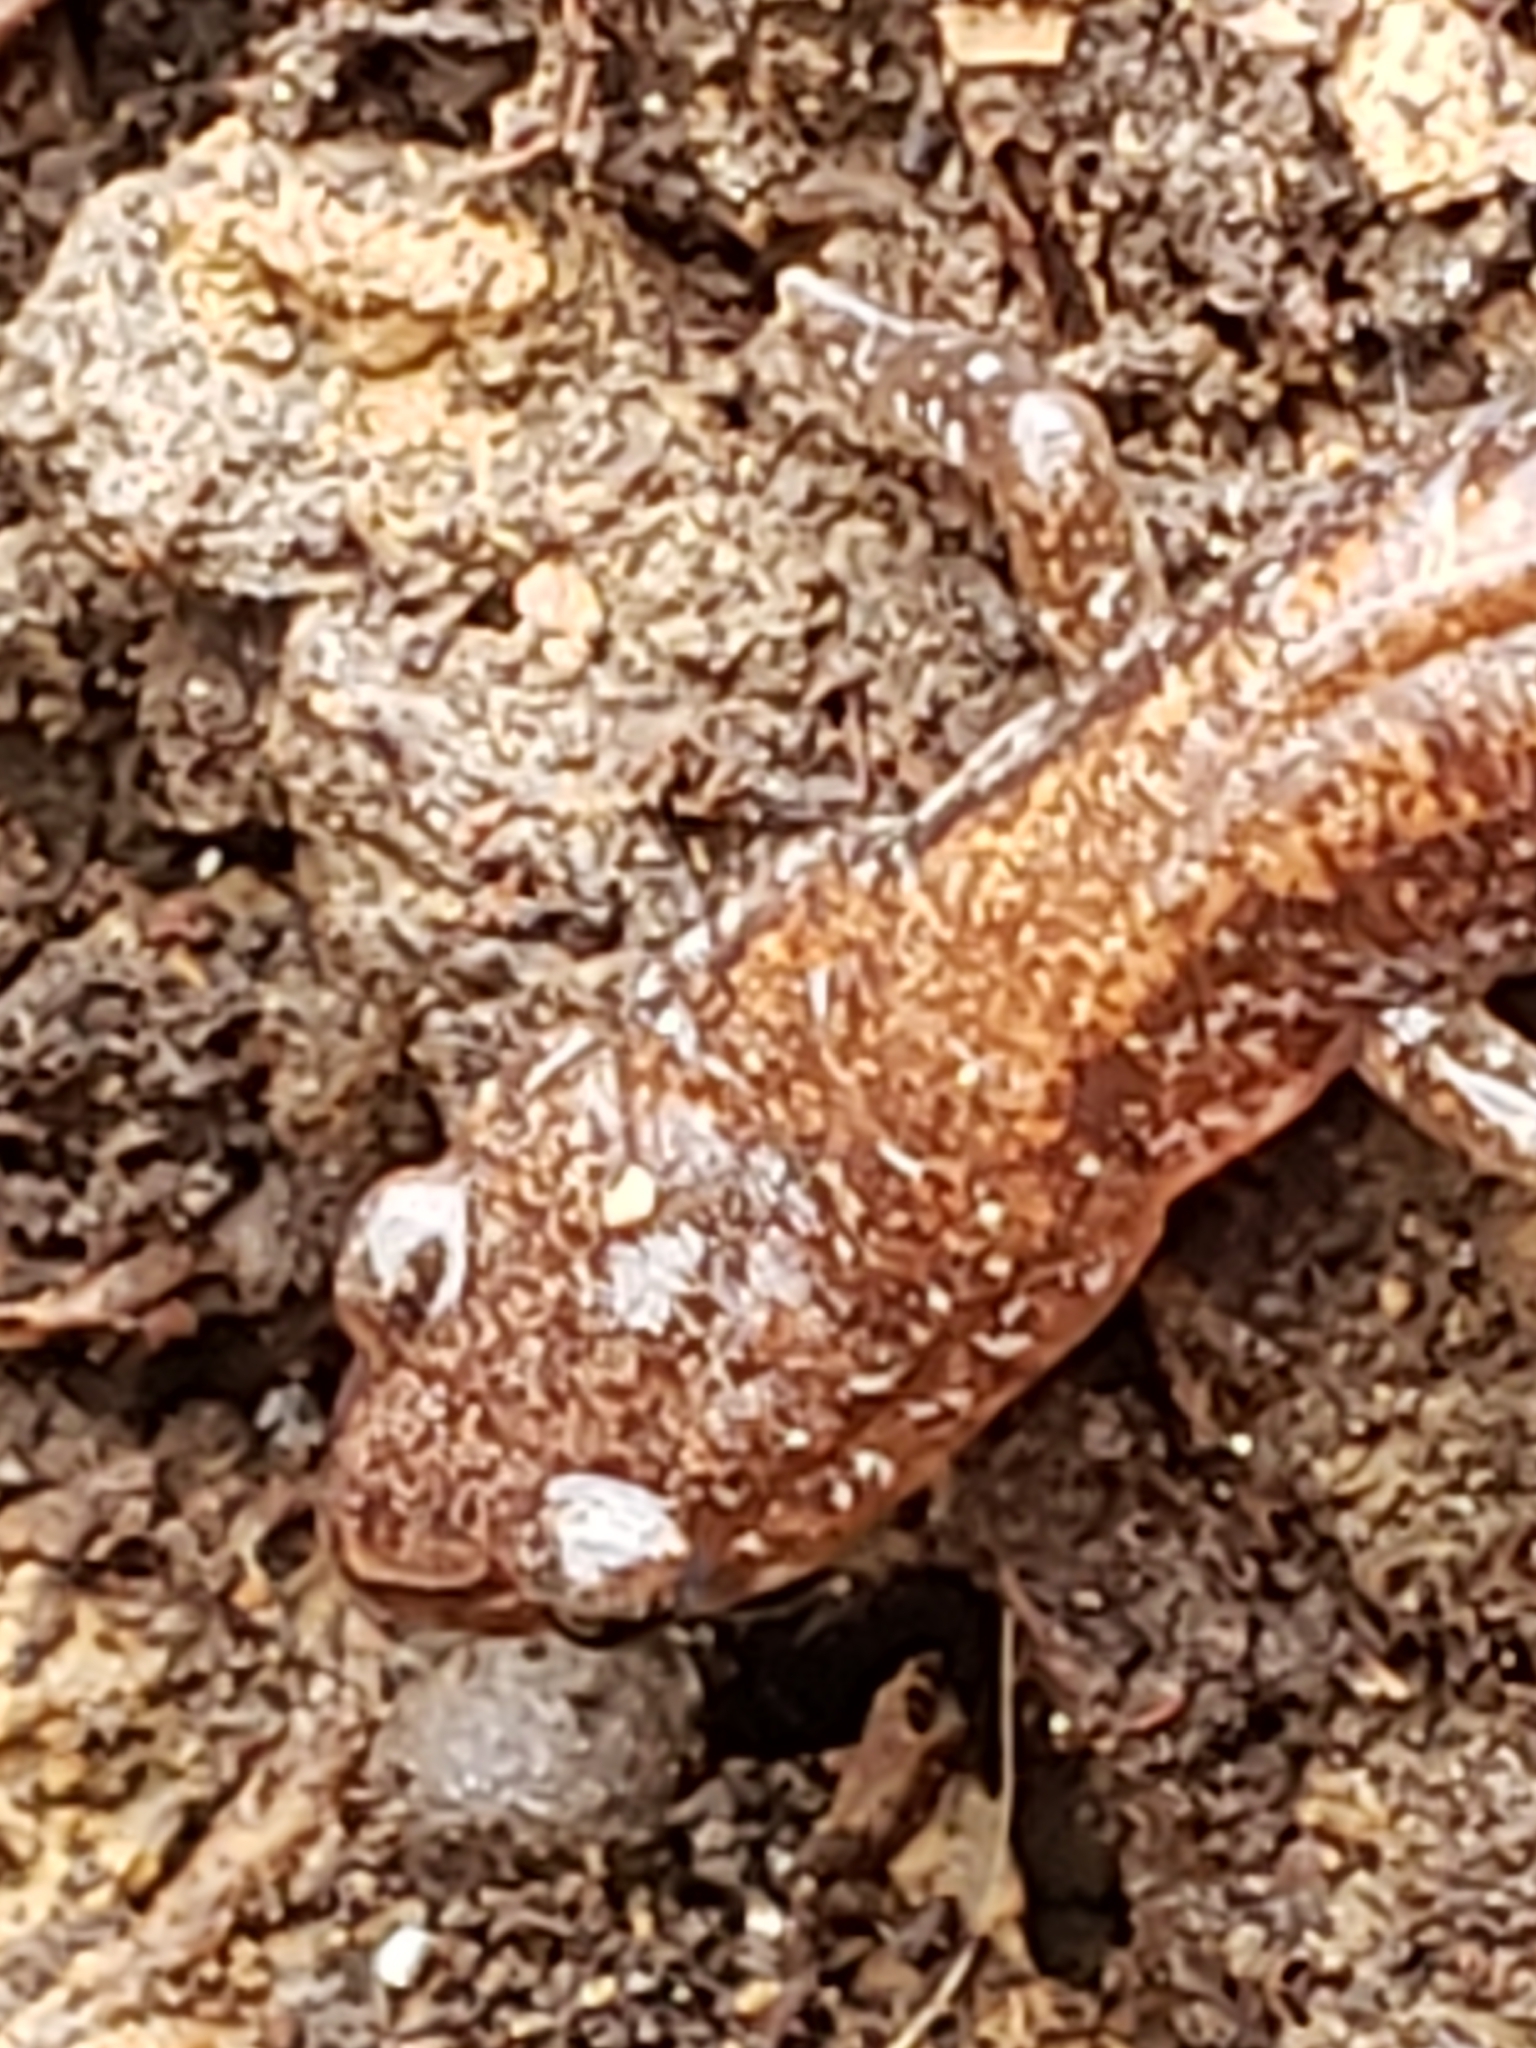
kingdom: Animalia
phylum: Chordata
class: Amphibia
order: Caudata
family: Plethodontidae
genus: Plethodon
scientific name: Plethodon cinereus
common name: Redback salamander
